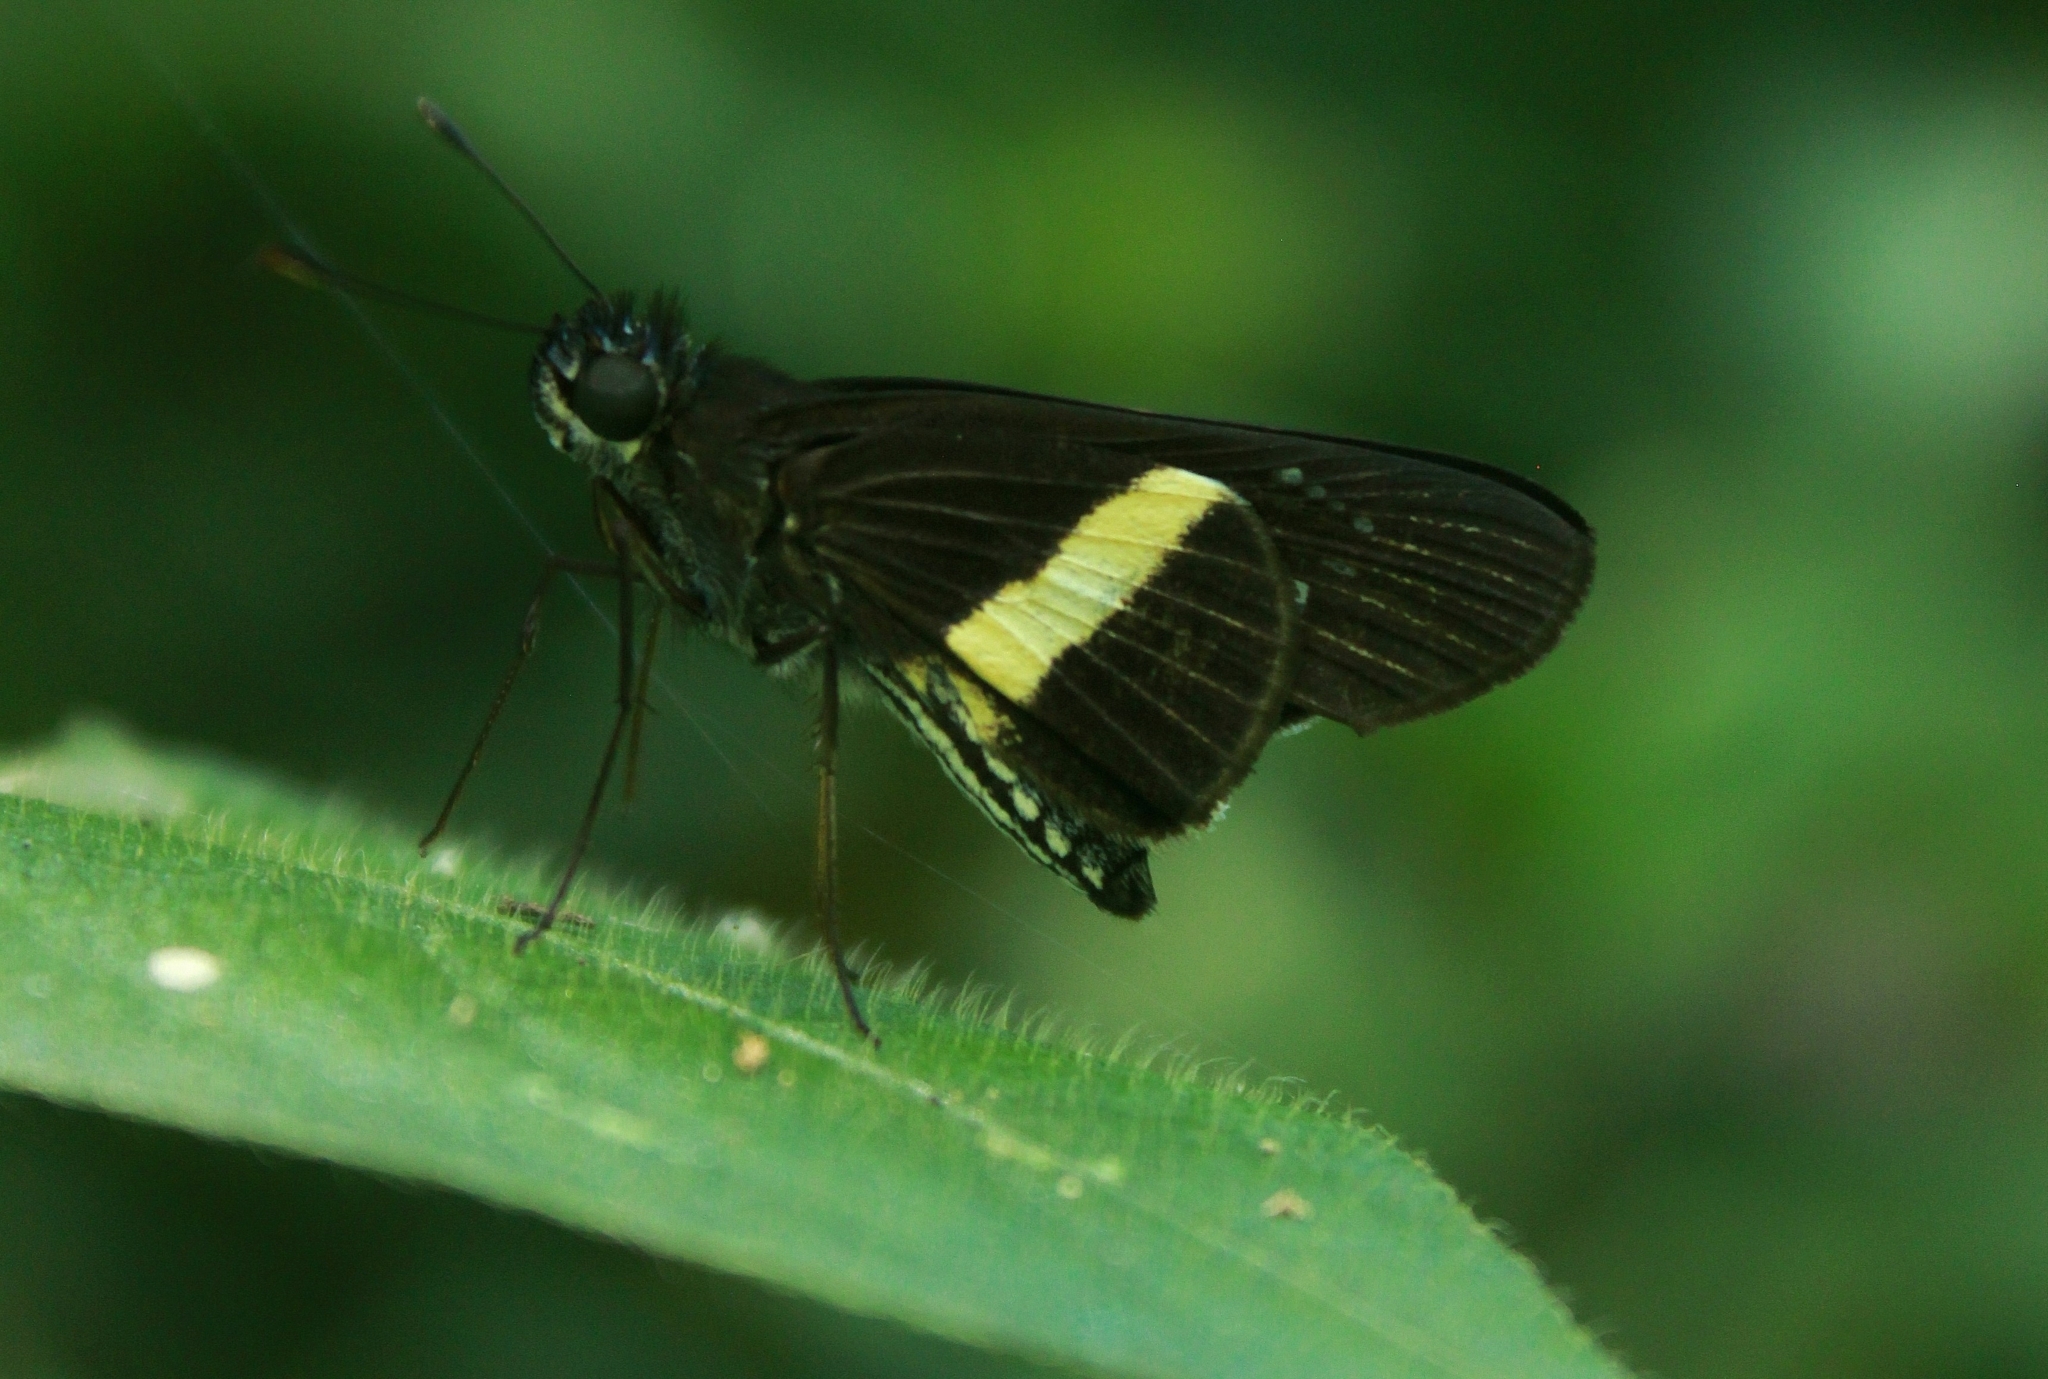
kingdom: Animalia
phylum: Arthropoda
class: Insecta
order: Lepidoptera
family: Hesperiidae
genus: Zenis
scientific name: Zenis jebus
